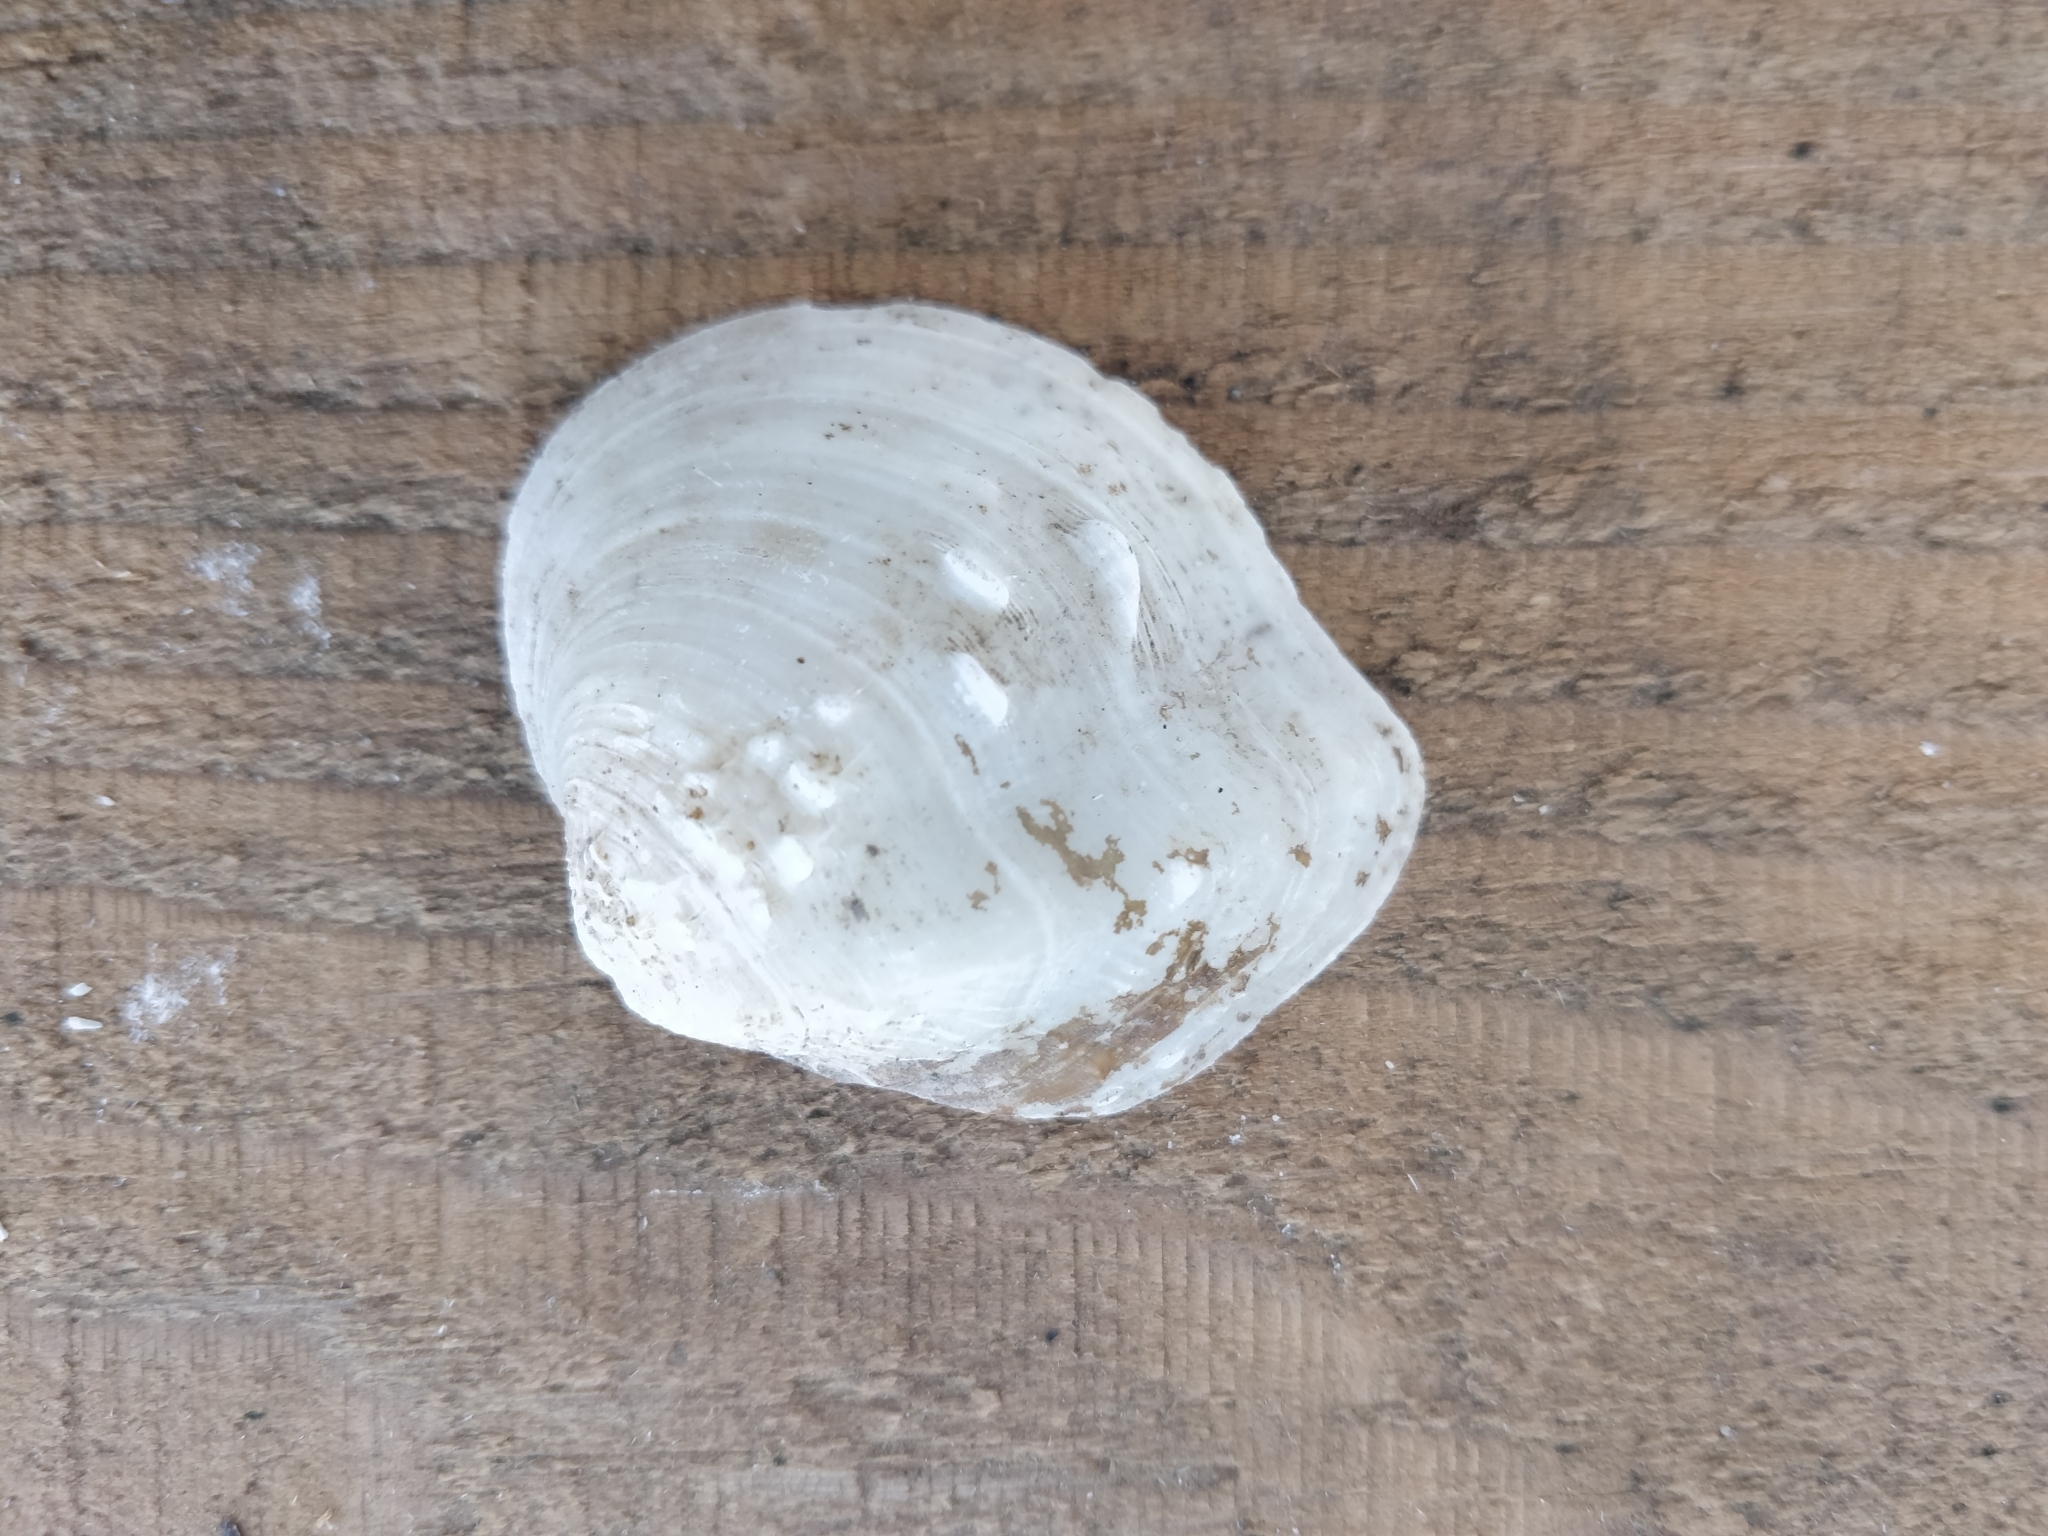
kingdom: Animalia
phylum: Mollusca
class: Bivalvia
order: Unionida
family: Unionidae
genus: Quadrula
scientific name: Quadrula quadrula
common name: Mapleleaf
